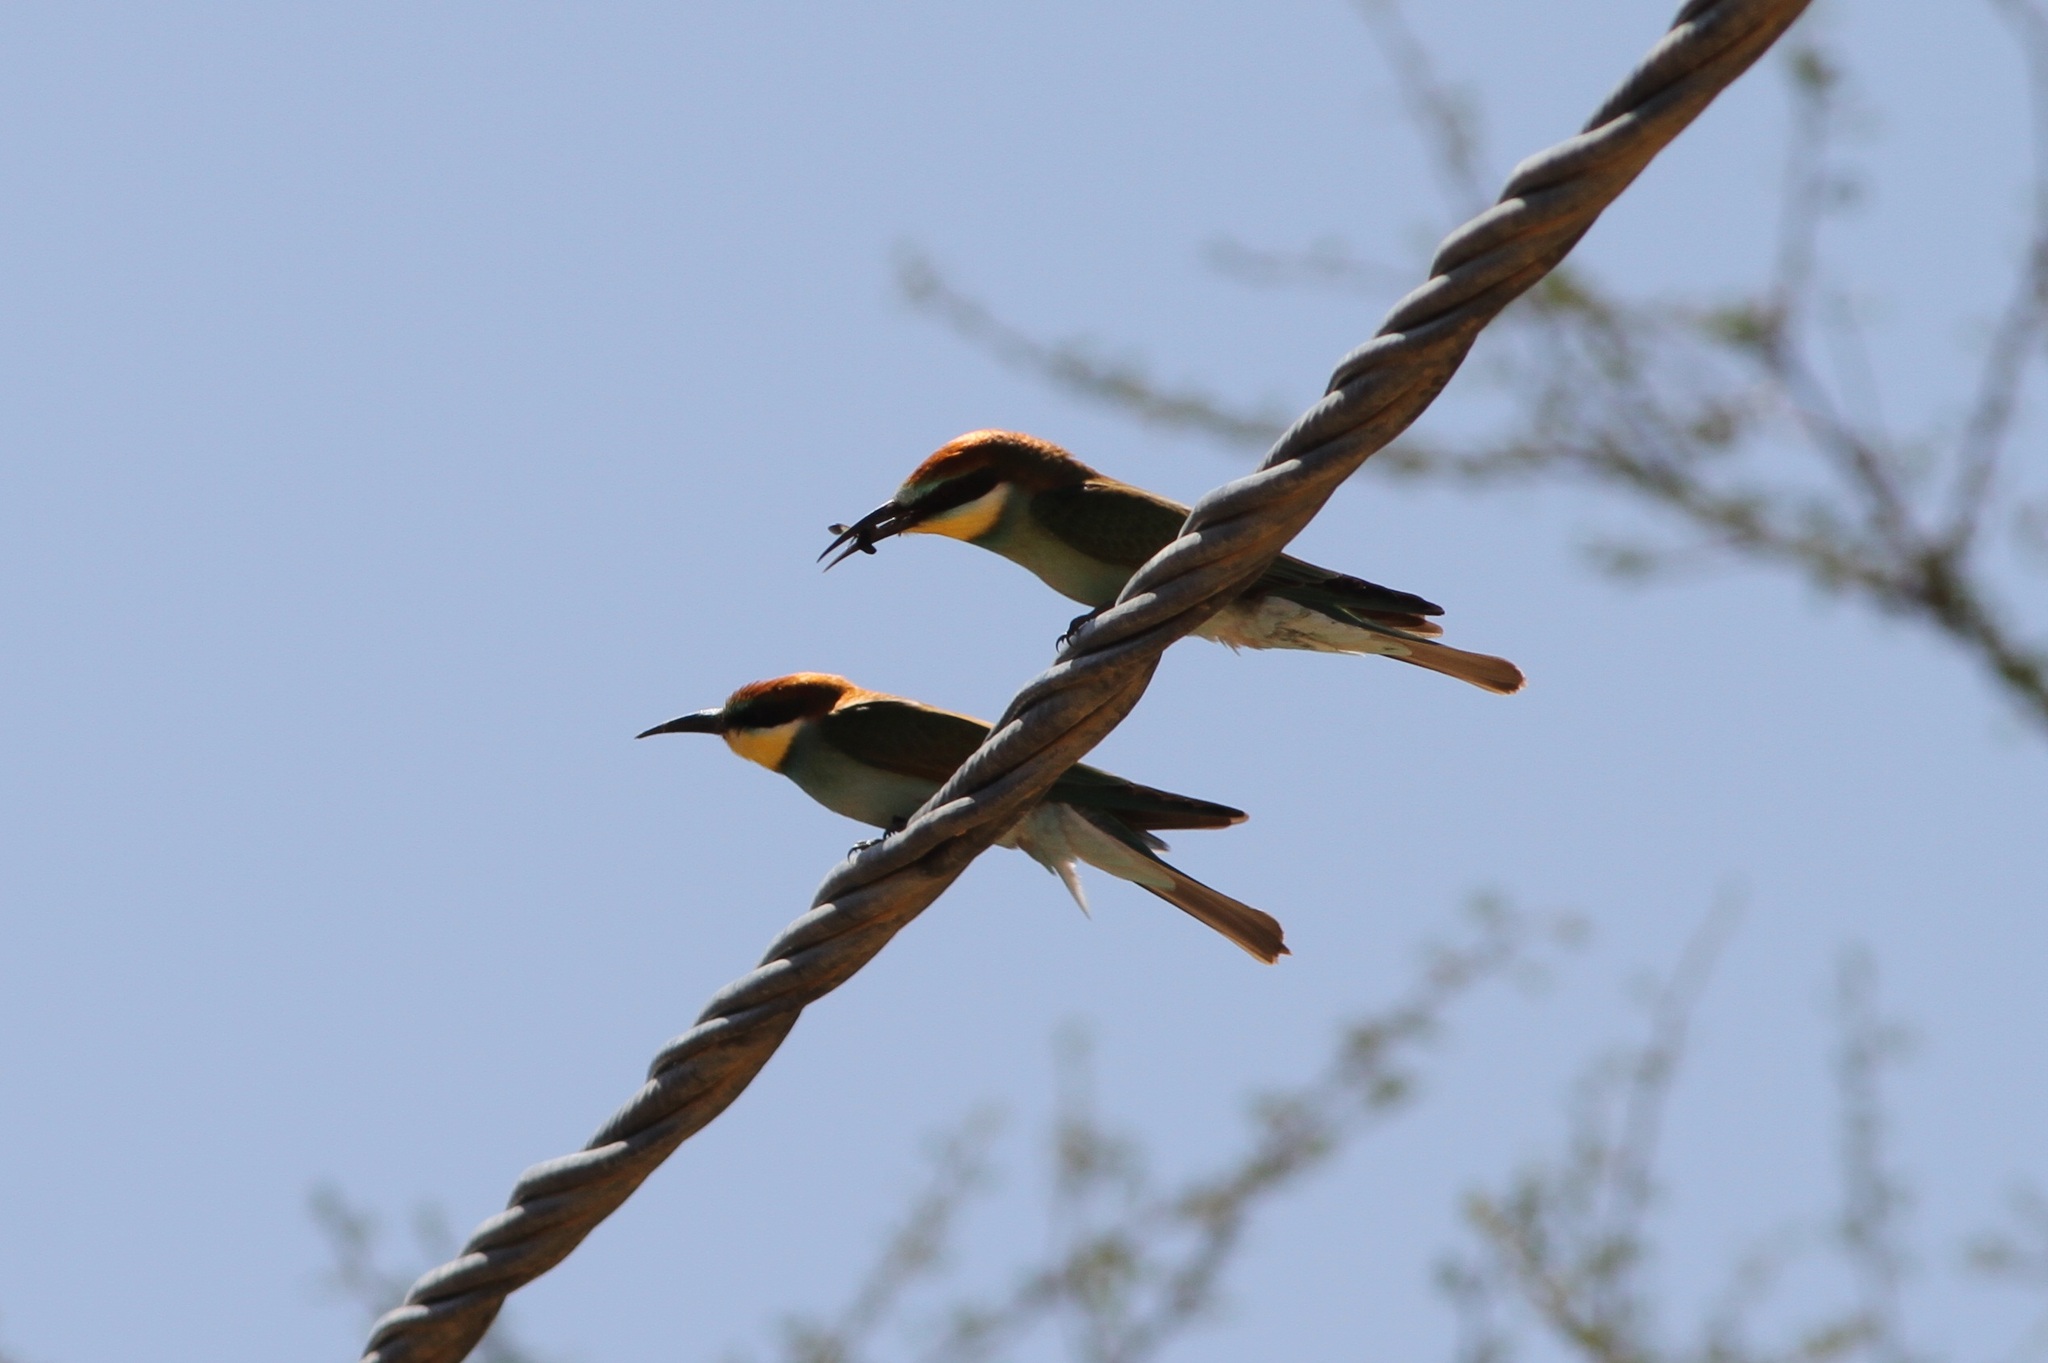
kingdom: Animalia
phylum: Chordata
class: Aves
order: Coraciiformes
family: Meropidae
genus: Merops
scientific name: Merops apiaster
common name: European bee-eater
